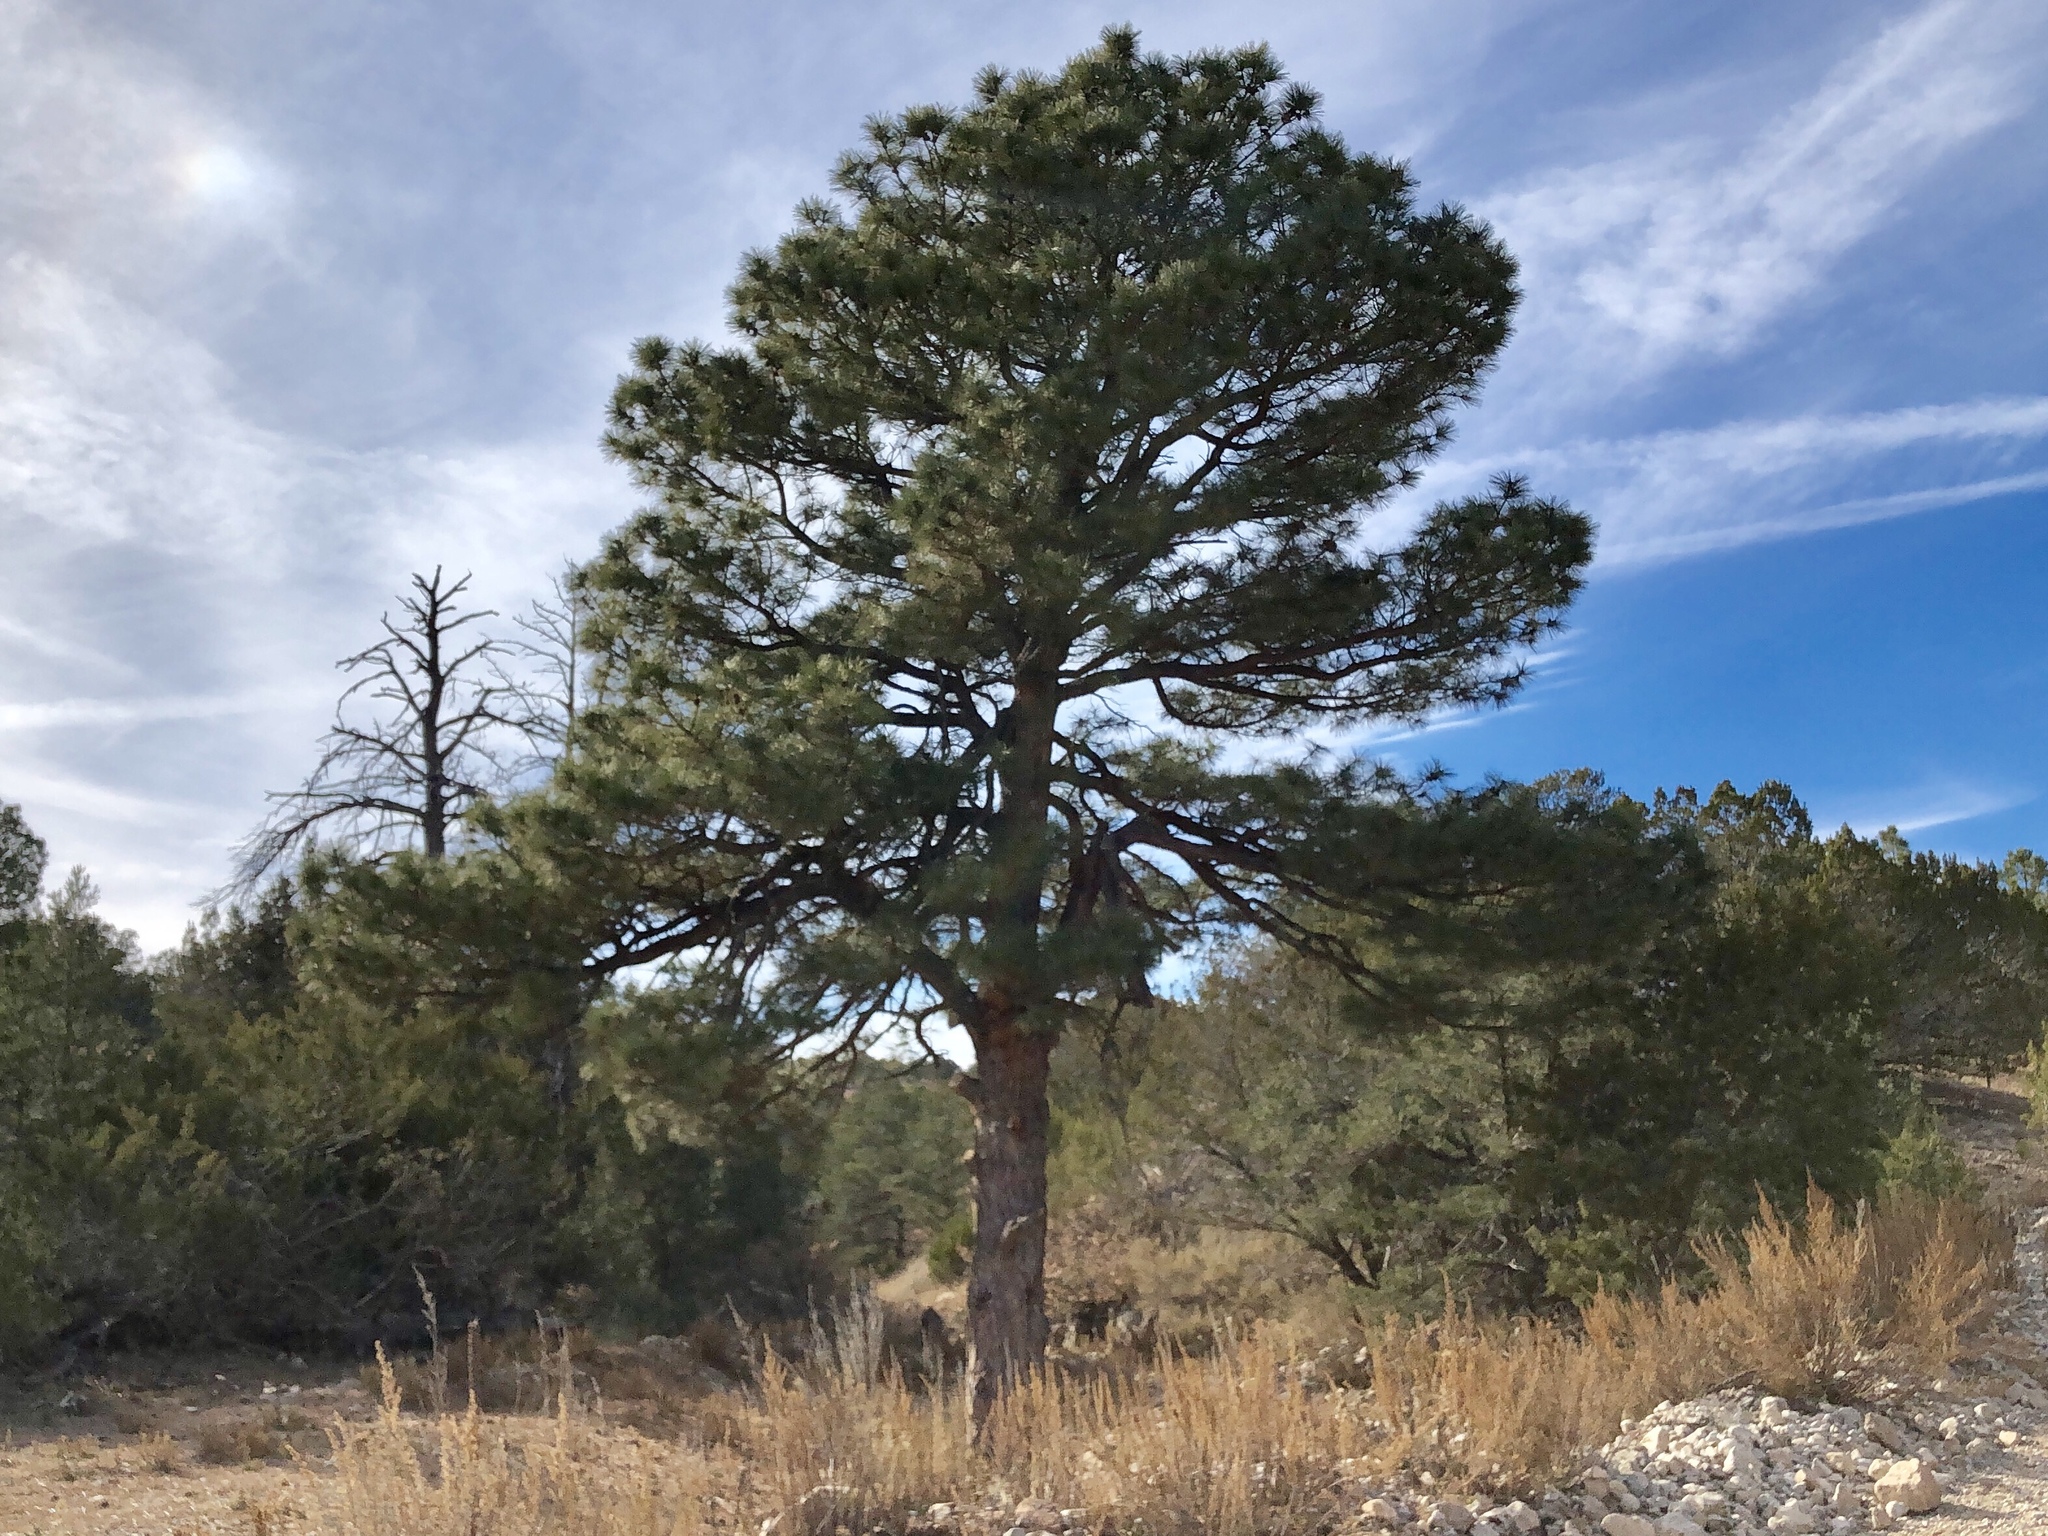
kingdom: Plantae
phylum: Tracheophyta
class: Pinopsida
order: Pinales
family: Pinaceae
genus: Pinus
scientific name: Pinus ponderosa
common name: Western yellow-pine
